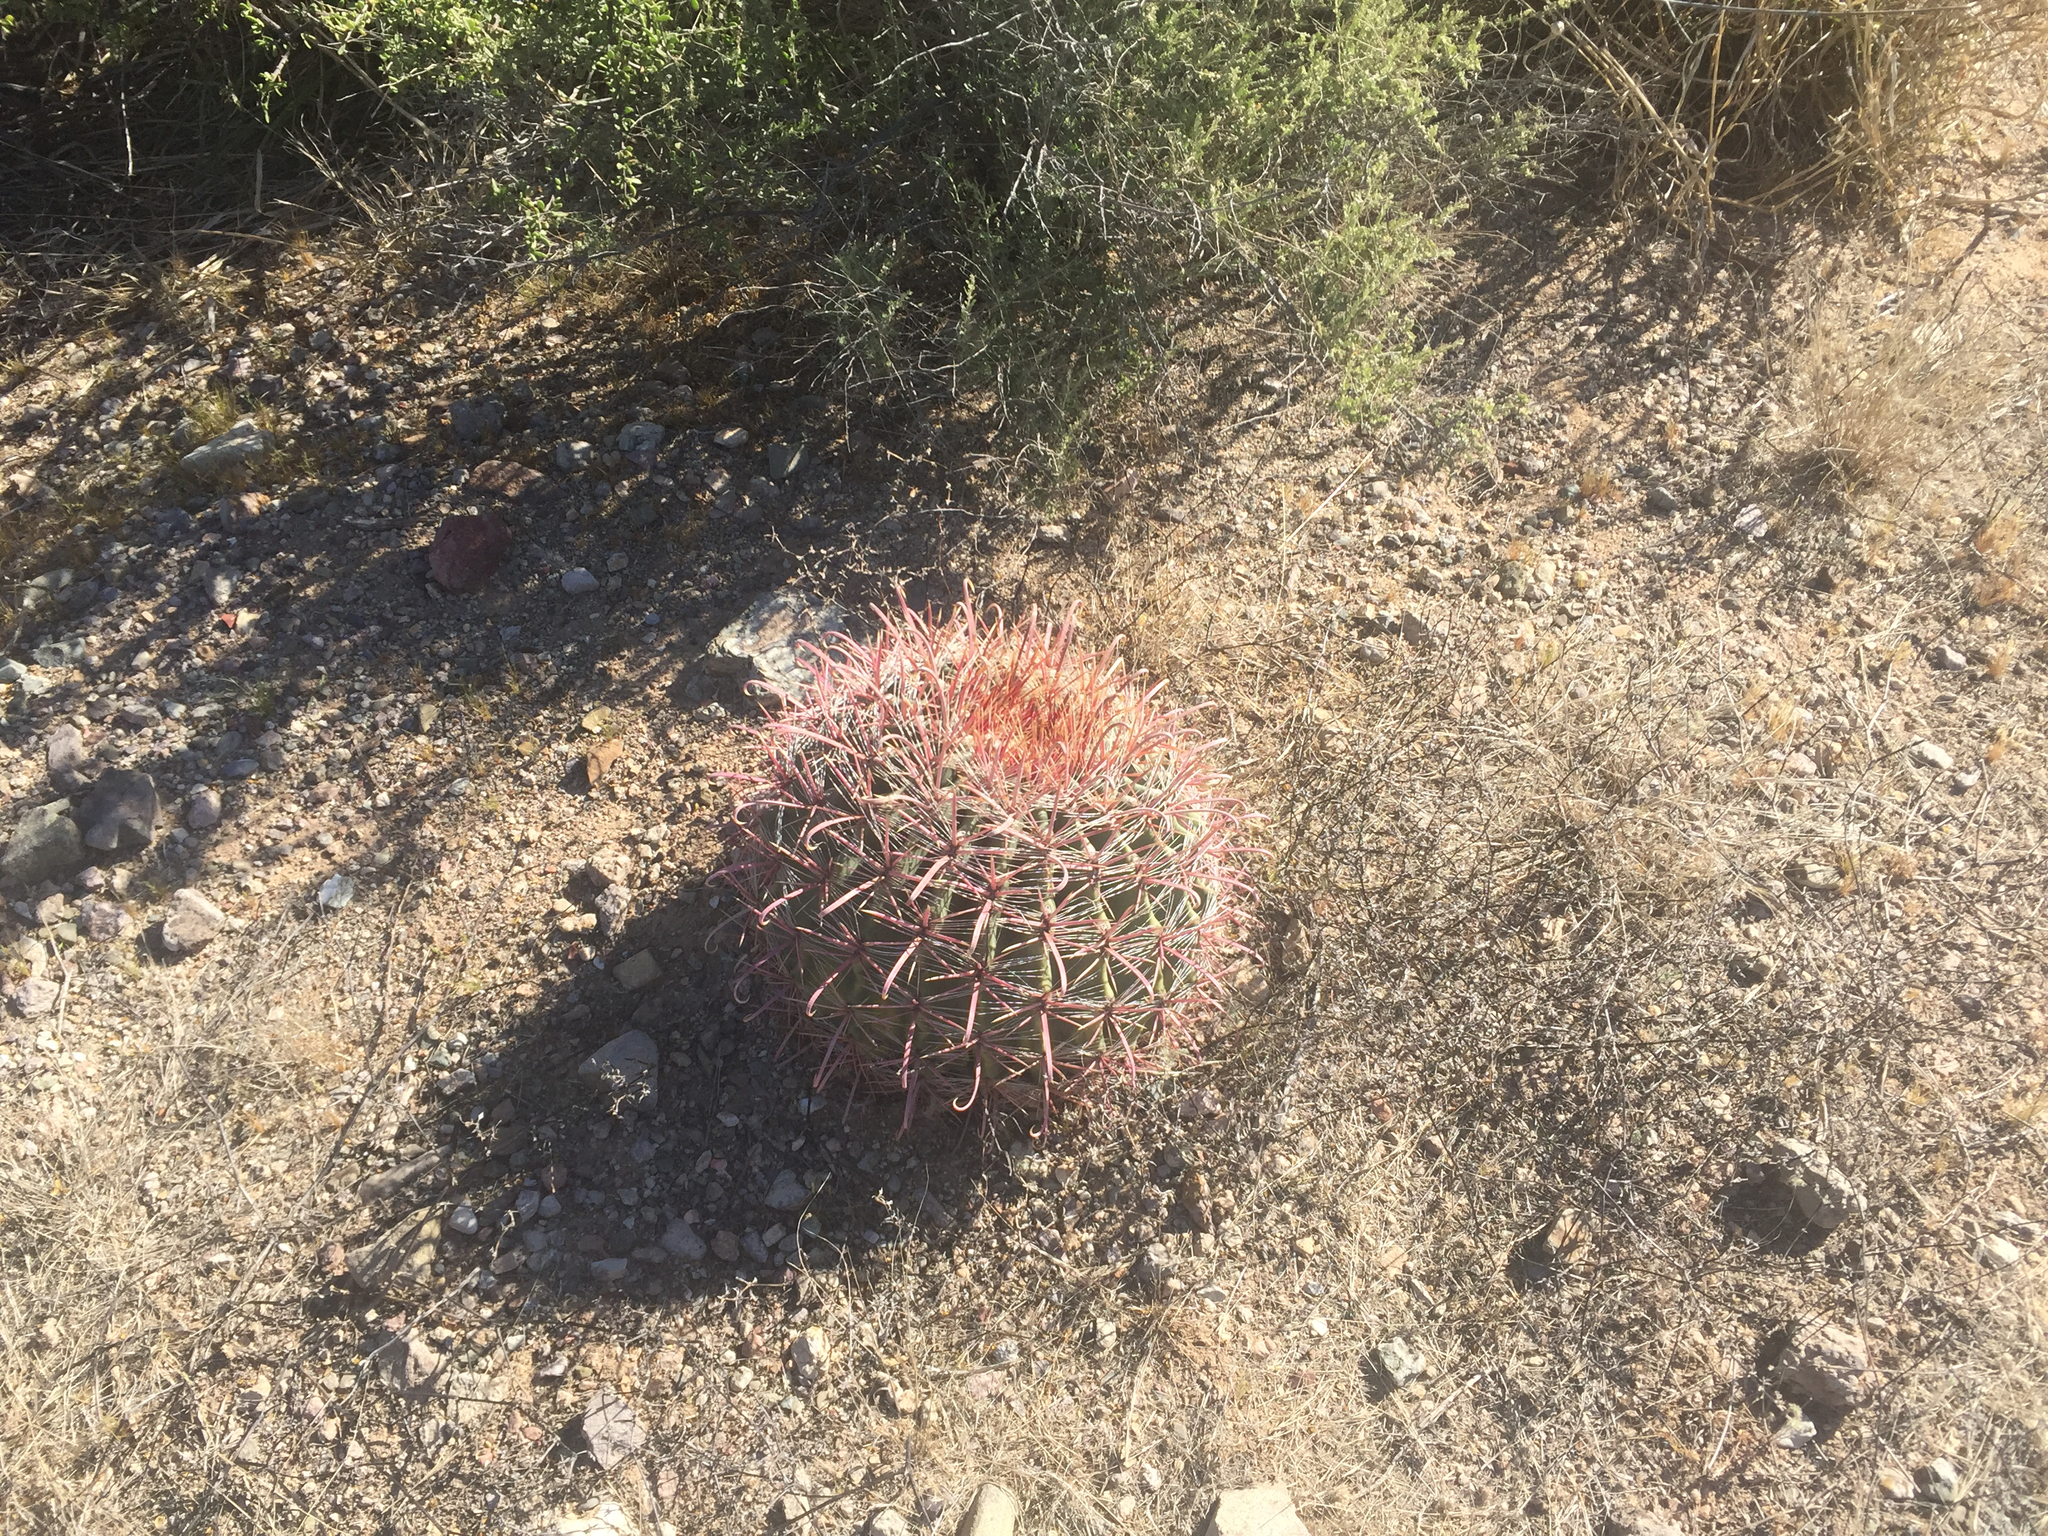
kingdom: Plantae
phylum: Tracheophyta
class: Magnoliopsida
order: Caryophyllales
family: Cactaceae
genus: Ferocactus
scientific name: Ferocactus wislizeni
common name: Candy barrel cactus
